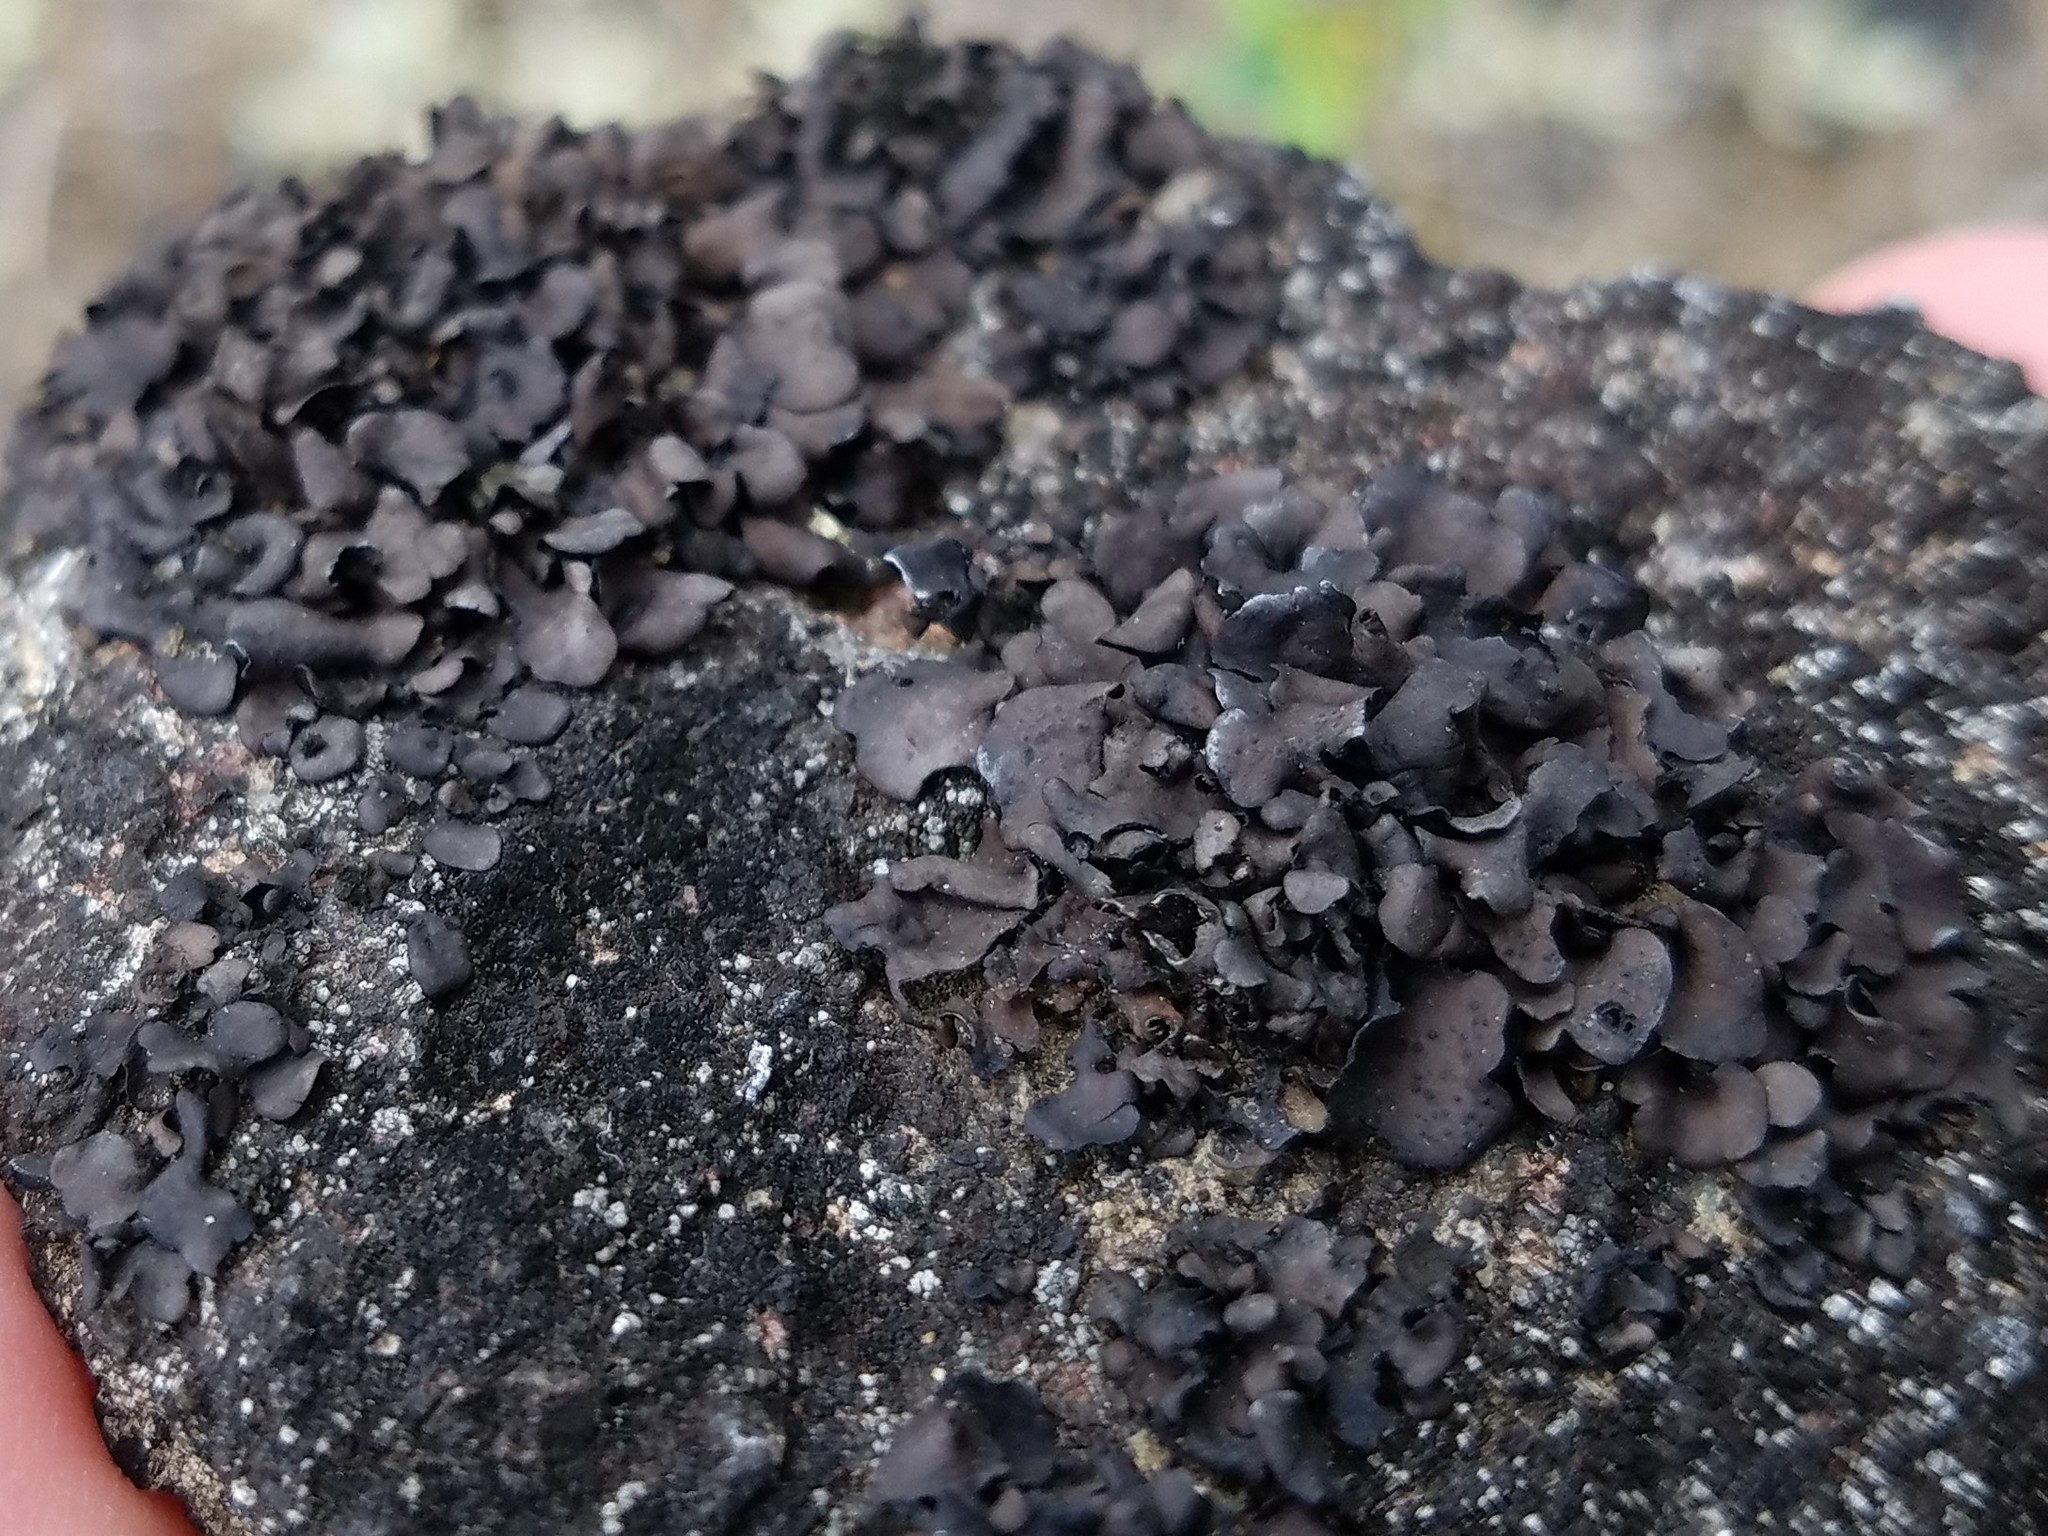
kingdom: Fungi
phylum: Ascomycota
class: Eurotiomycetes
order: Verrucariales
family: Verrucariaceae
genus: Dermatocarpon
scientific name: Dermatocarpon luridum
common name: Brook stippleback lichen
